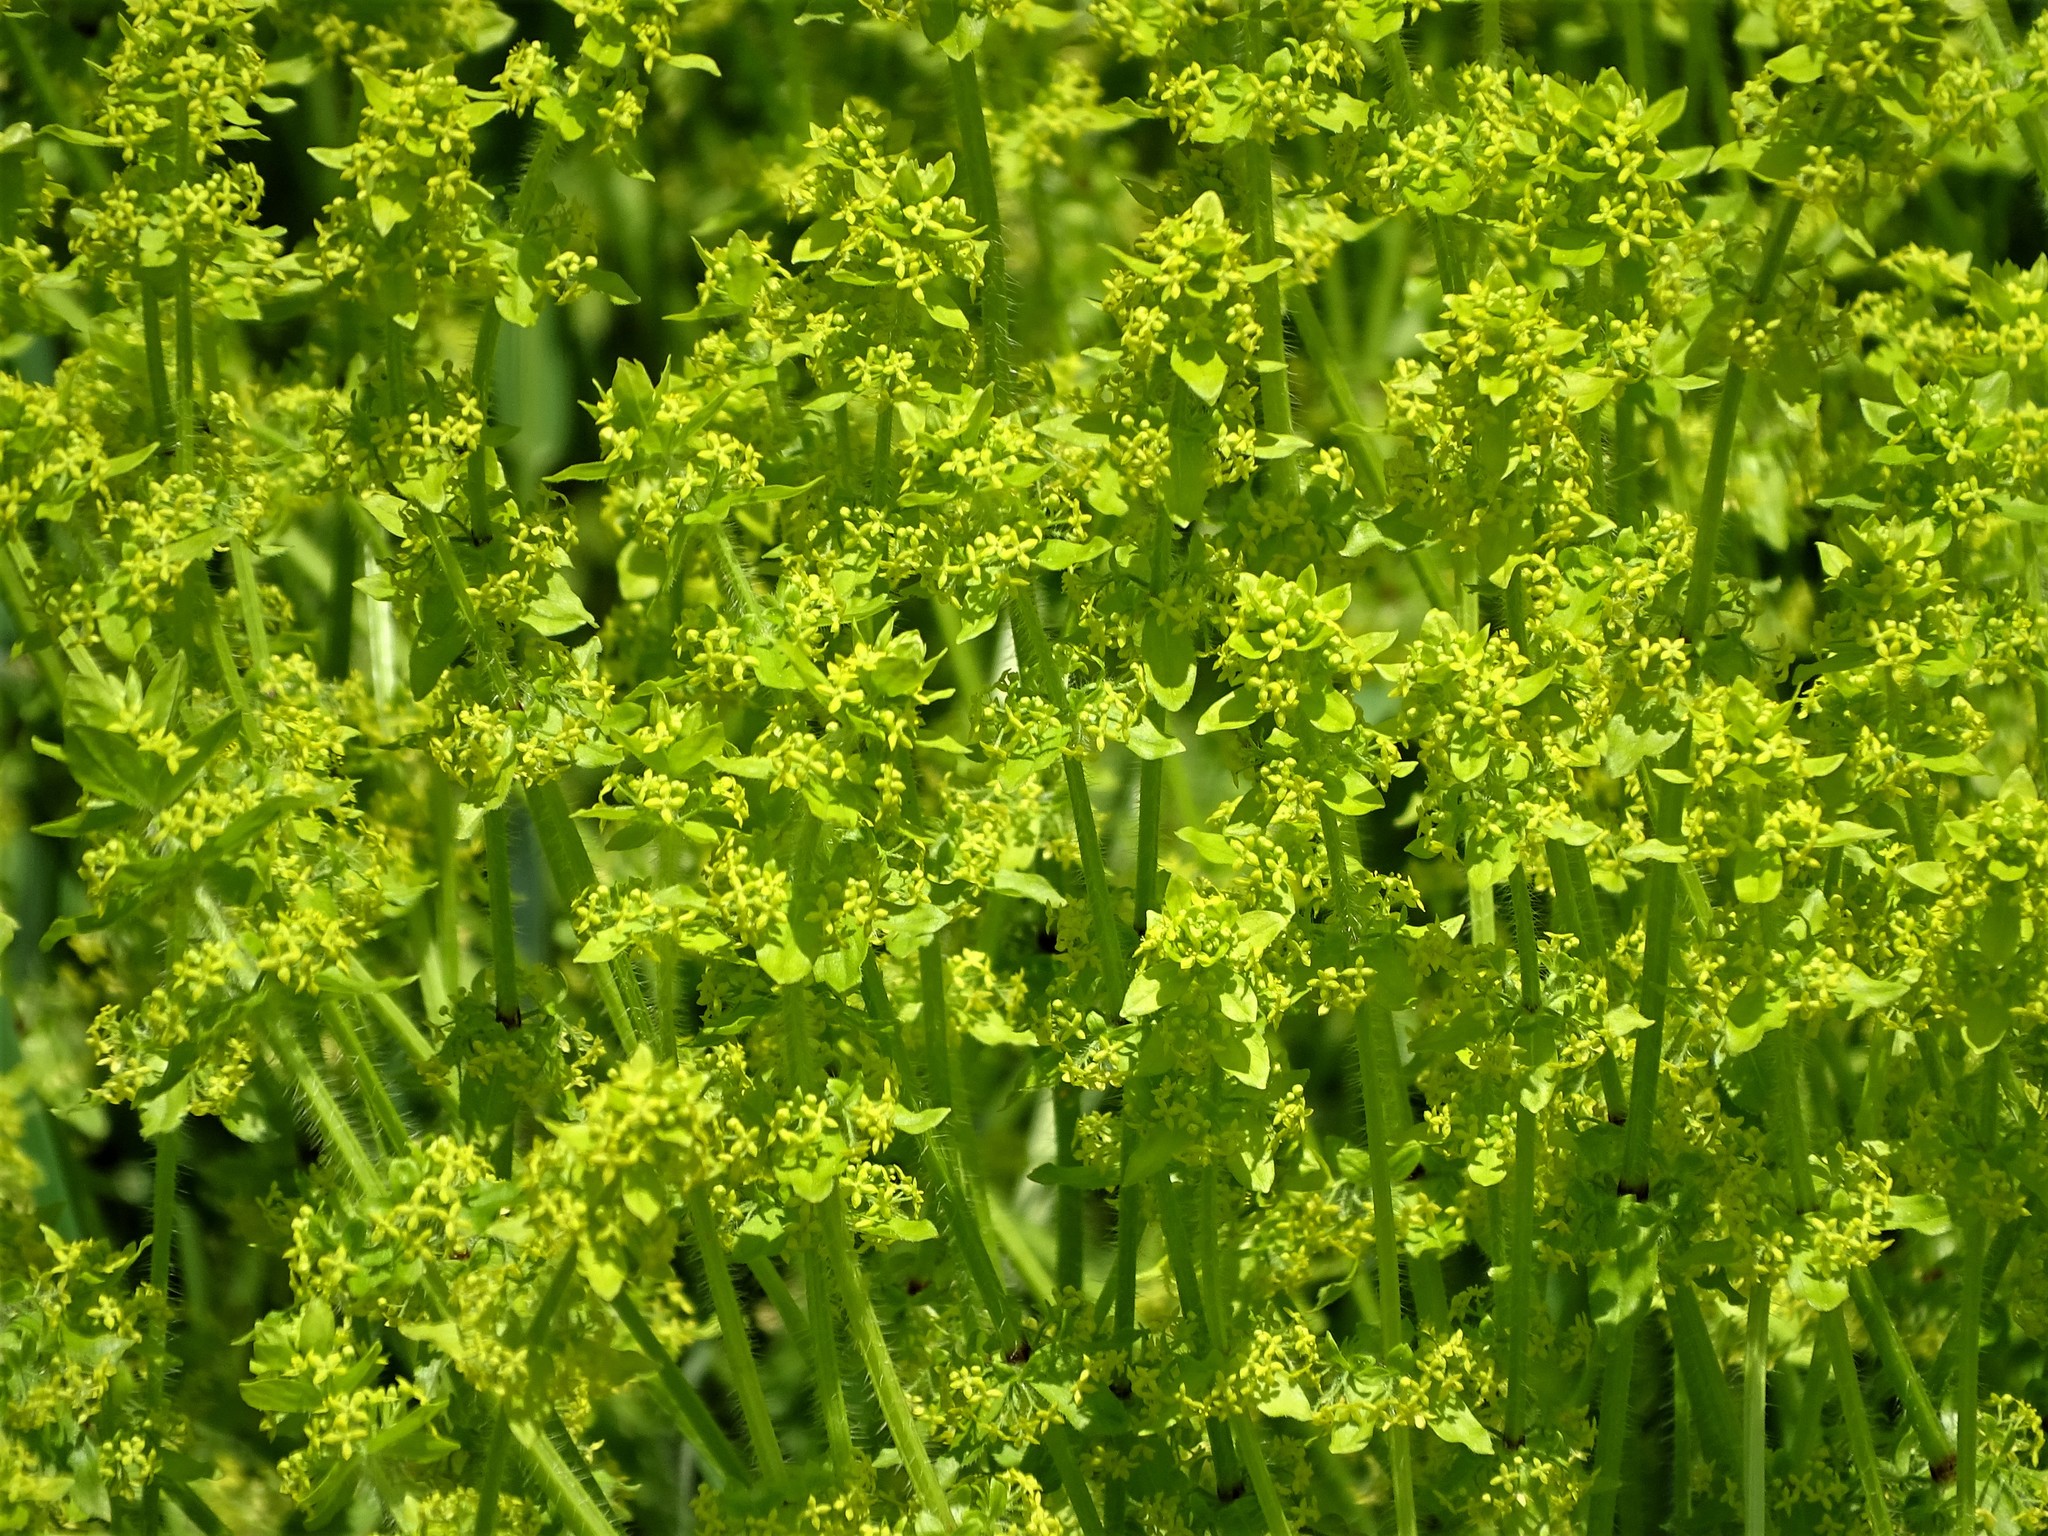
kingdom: Plantae
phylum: Tracheophyta
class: Magnoliopsida
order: Gentianales
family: Rubiaceae
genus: Cruciata
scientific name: Cruciata laevipes
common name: Crosswort
